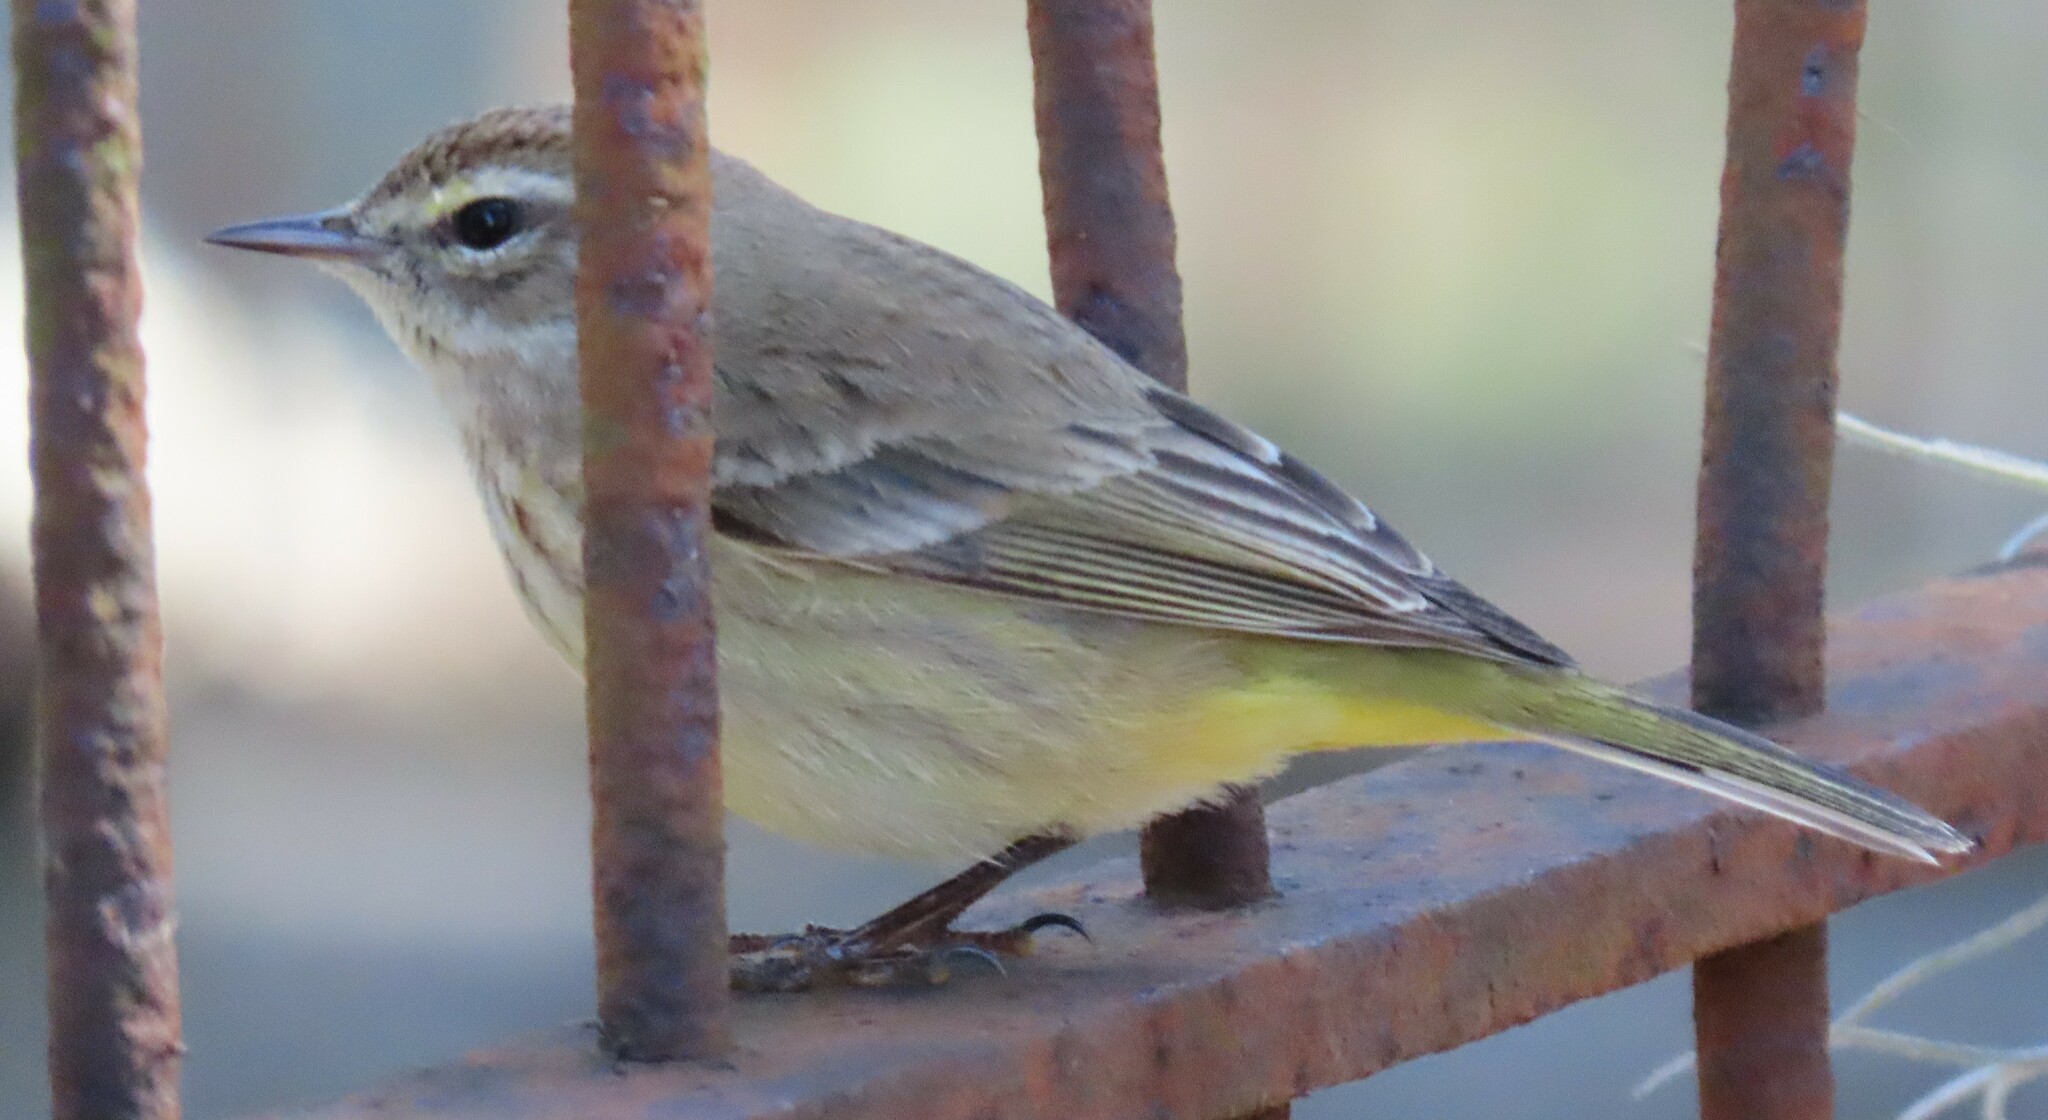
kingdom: Animalia
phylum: Chordata
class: Aves
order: Passeriformes
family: Parulidae
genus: Setophaga
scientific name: Setophaga palmarum
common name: Palm warbler
